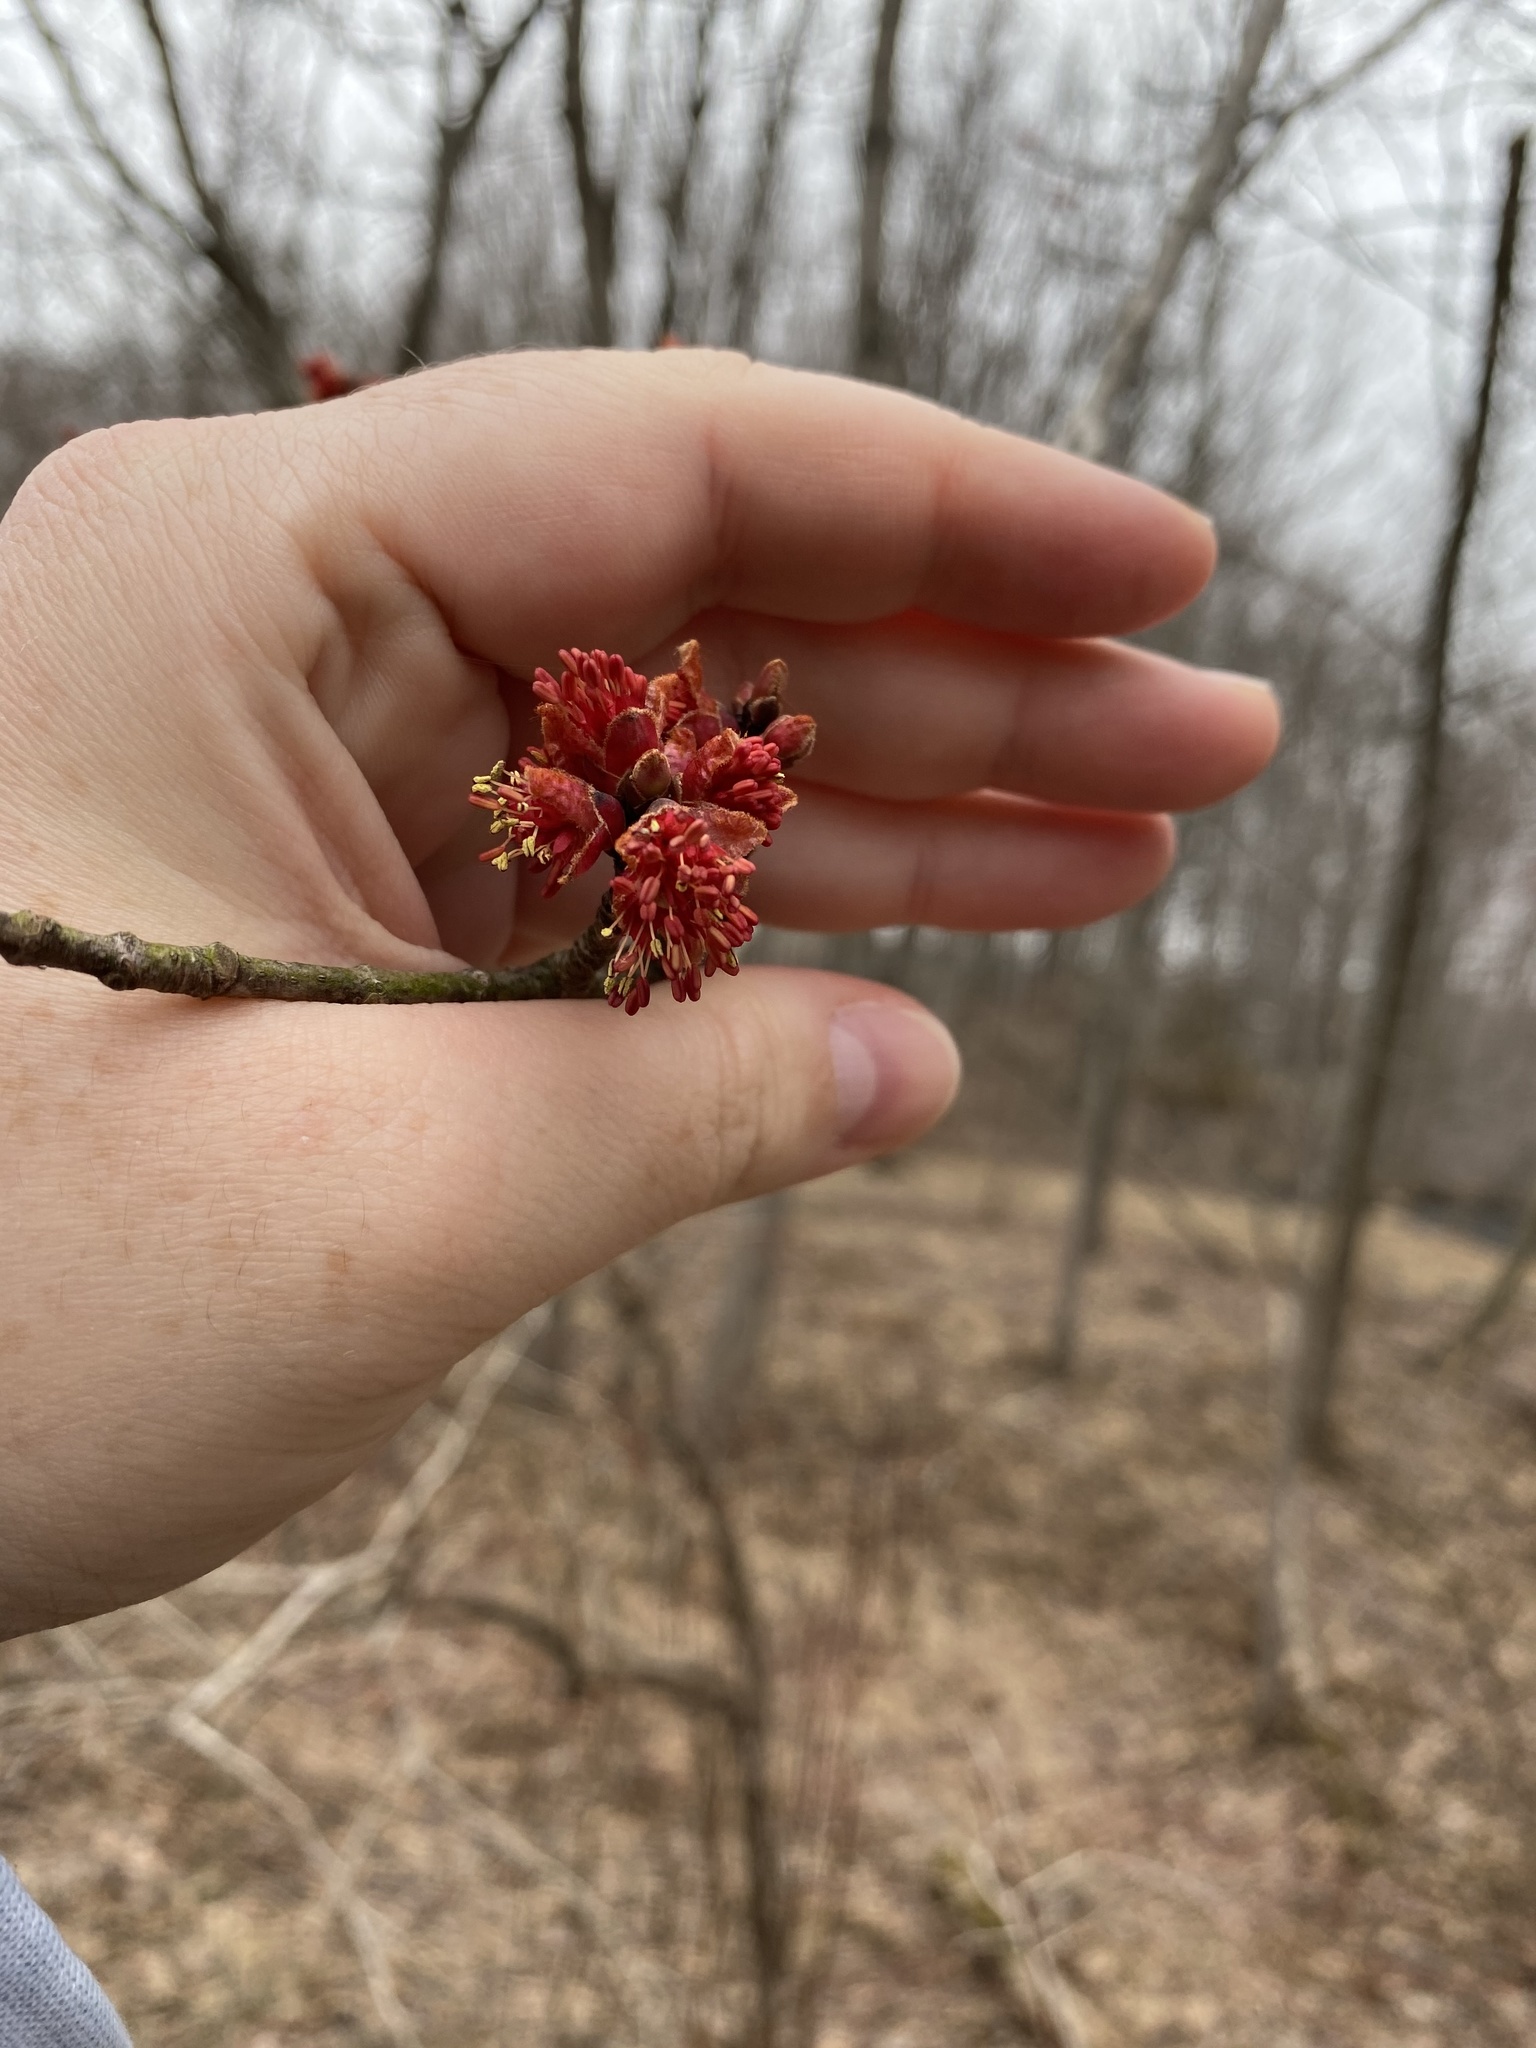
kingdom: Plantae
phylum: Tracheophyta
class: Magnoliopsida
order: Sapindales
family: Sapindaceae
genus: Acer
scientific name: Acer rubrum
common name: Red maple
